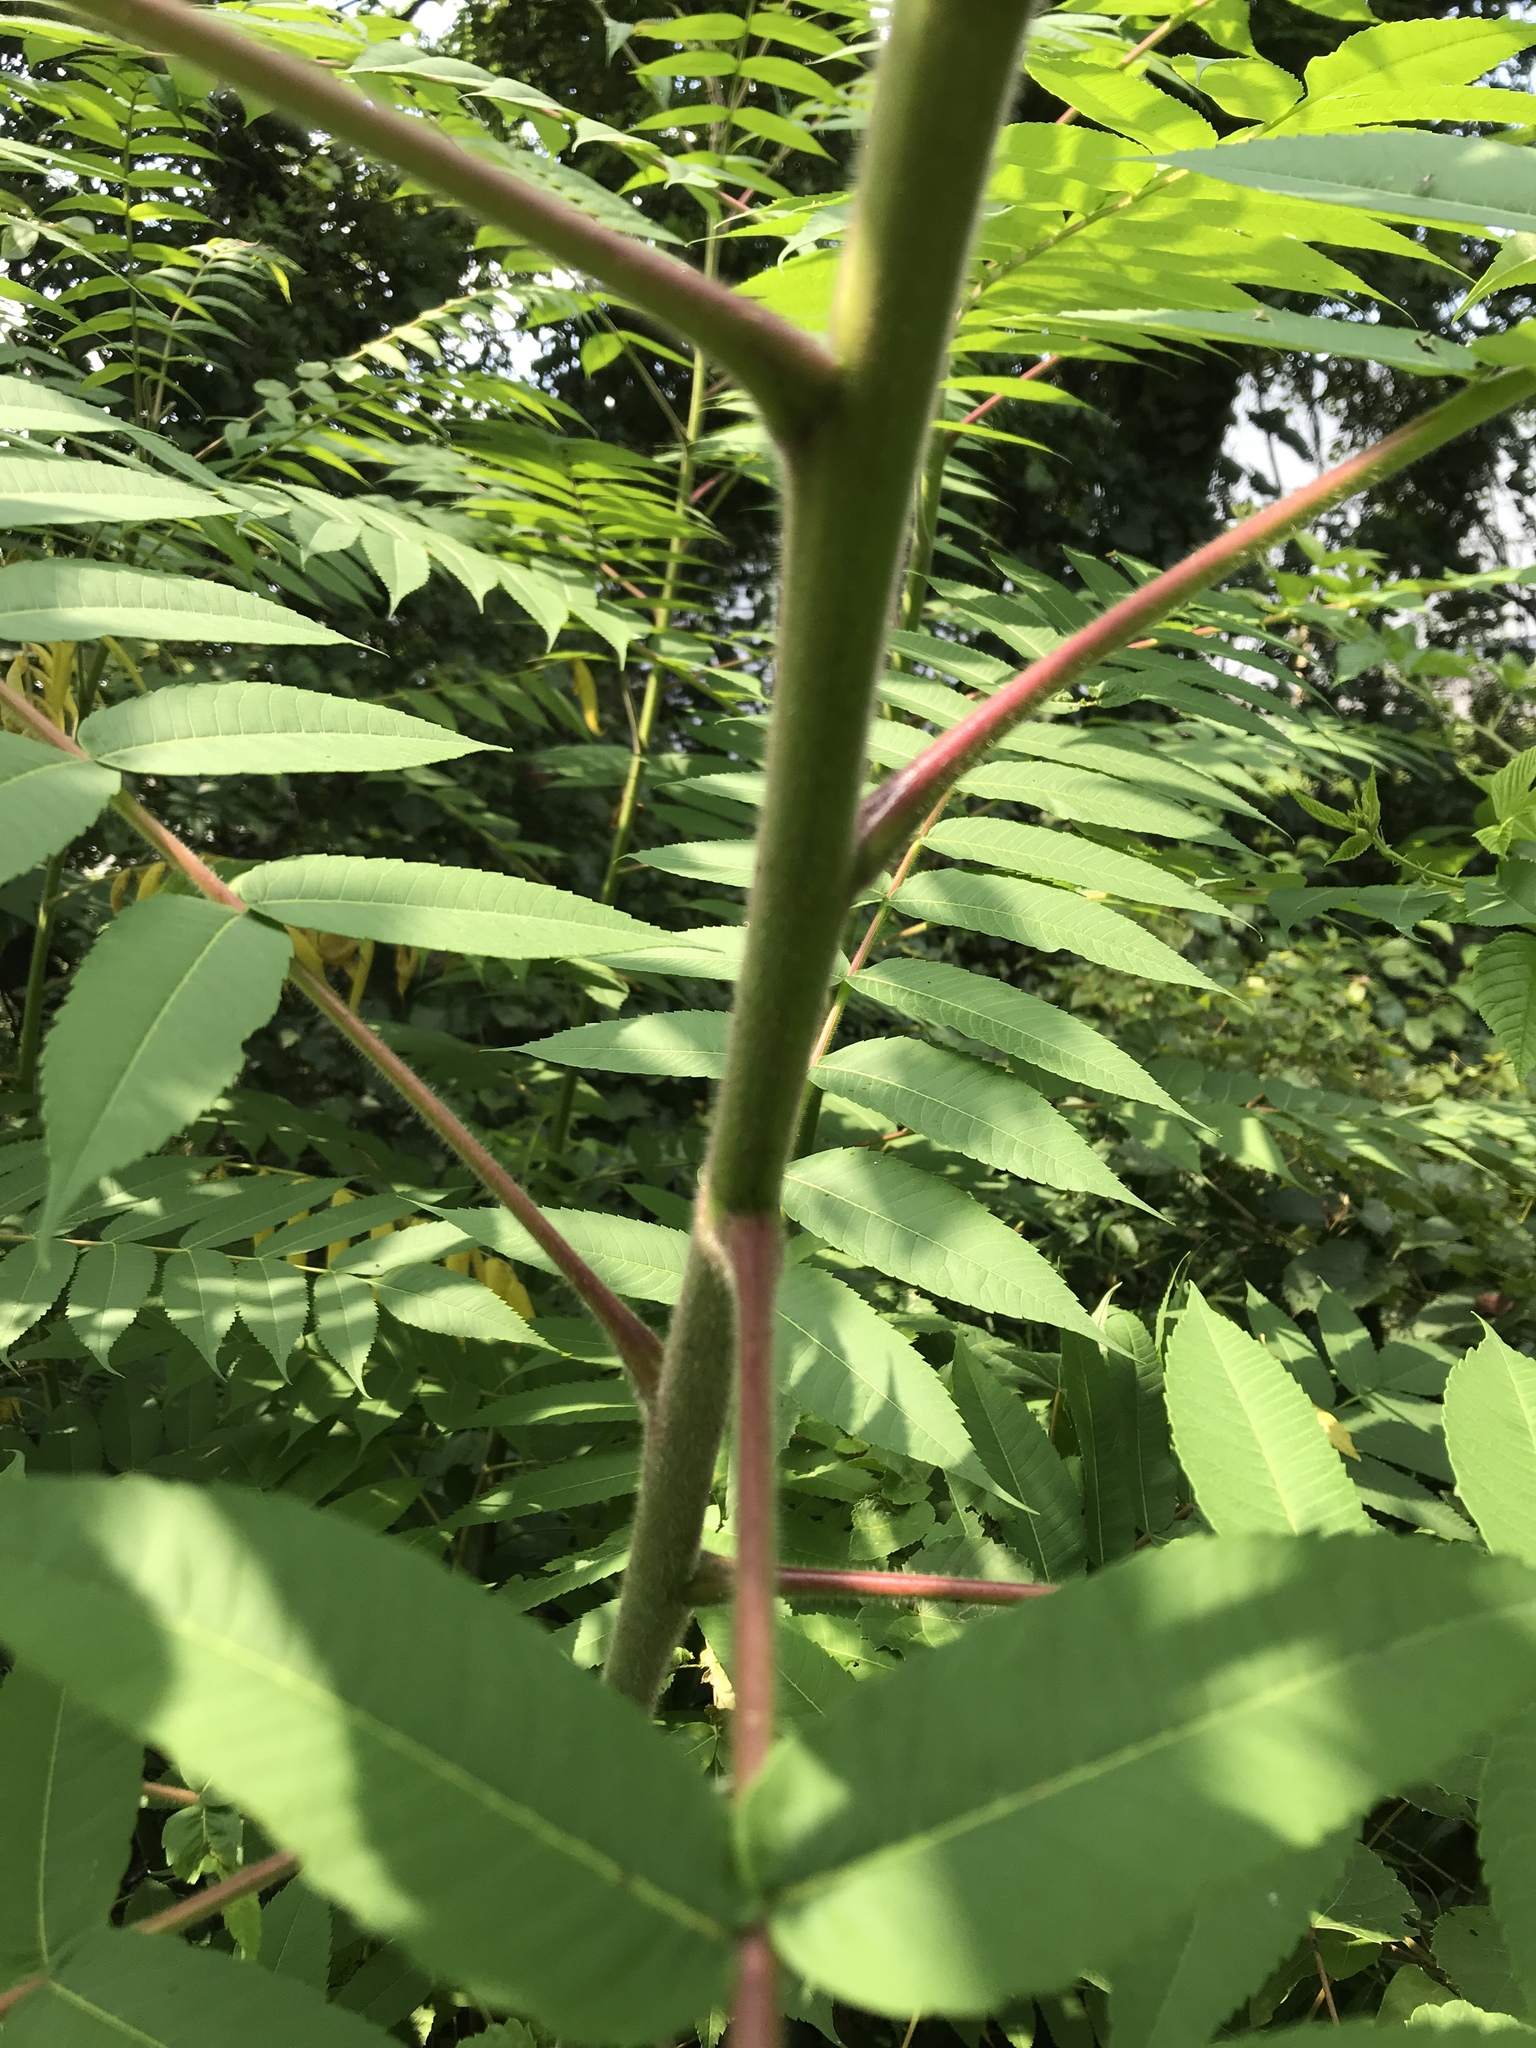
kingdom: Plantae
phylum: Tracheophyta
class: Magnoliopsida
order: Sapindales
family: Anacardiaceae
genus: Rhus
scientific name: Rhus typhina
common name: Staghorn sumac
